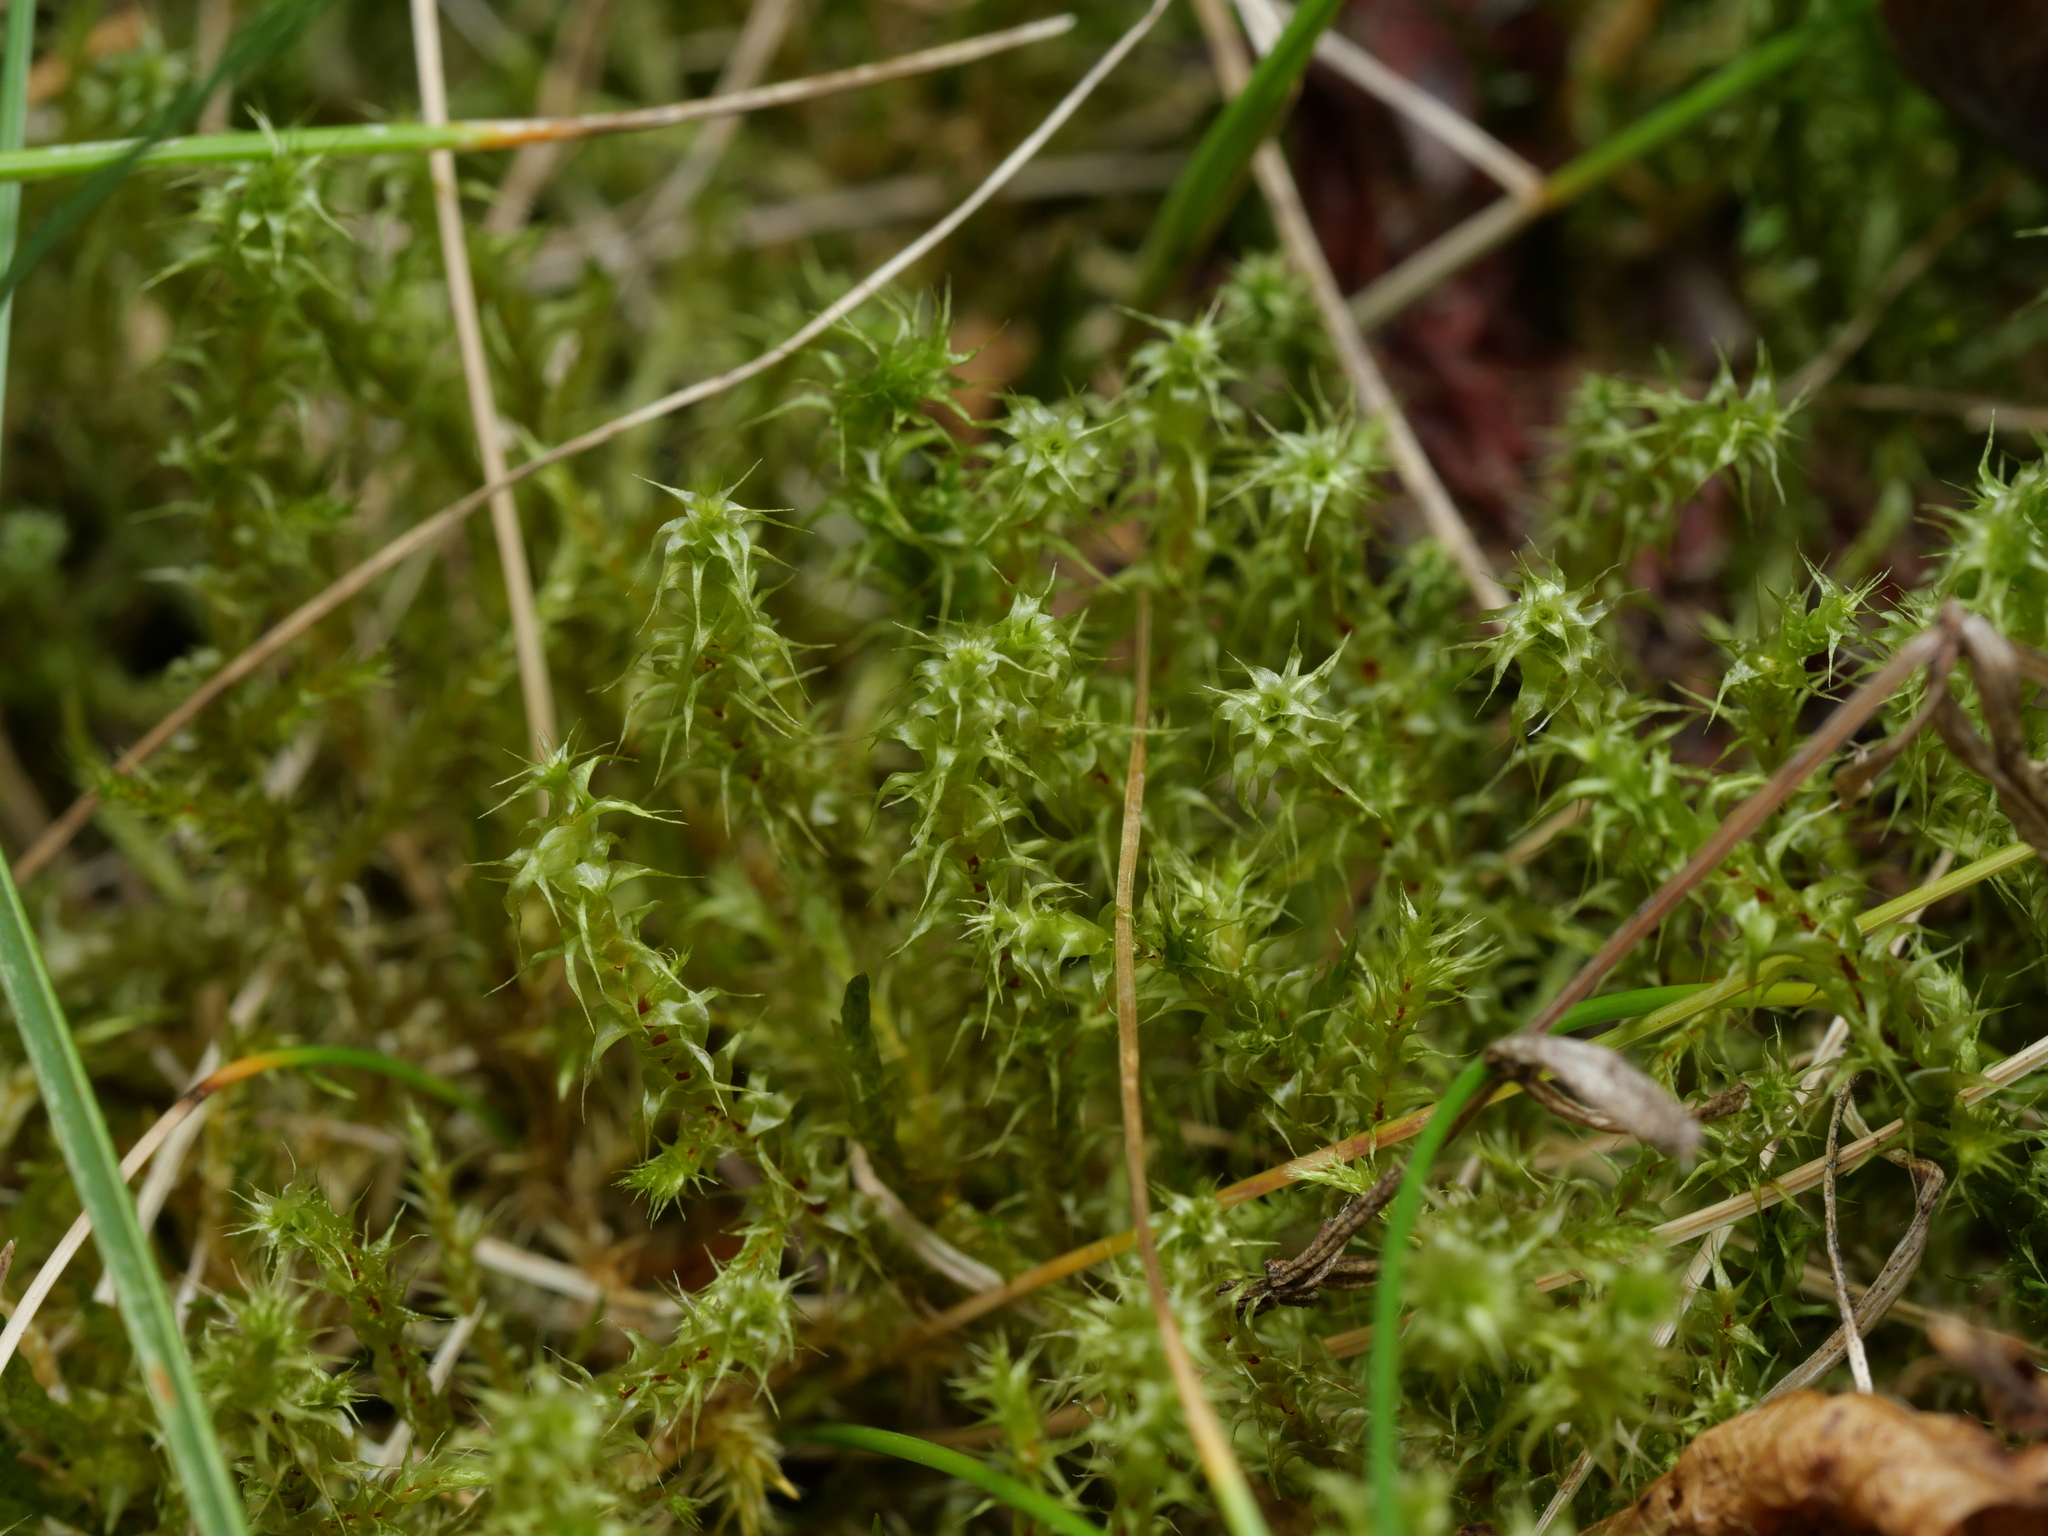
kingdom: Plantae
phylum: Bryophyta
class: Bryopsida
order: Hypnales
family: Hylocomiaceae
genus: Rhytidiadelphus
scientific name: Rhytidiadelphus squarrosus
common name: Springy turf-moss
